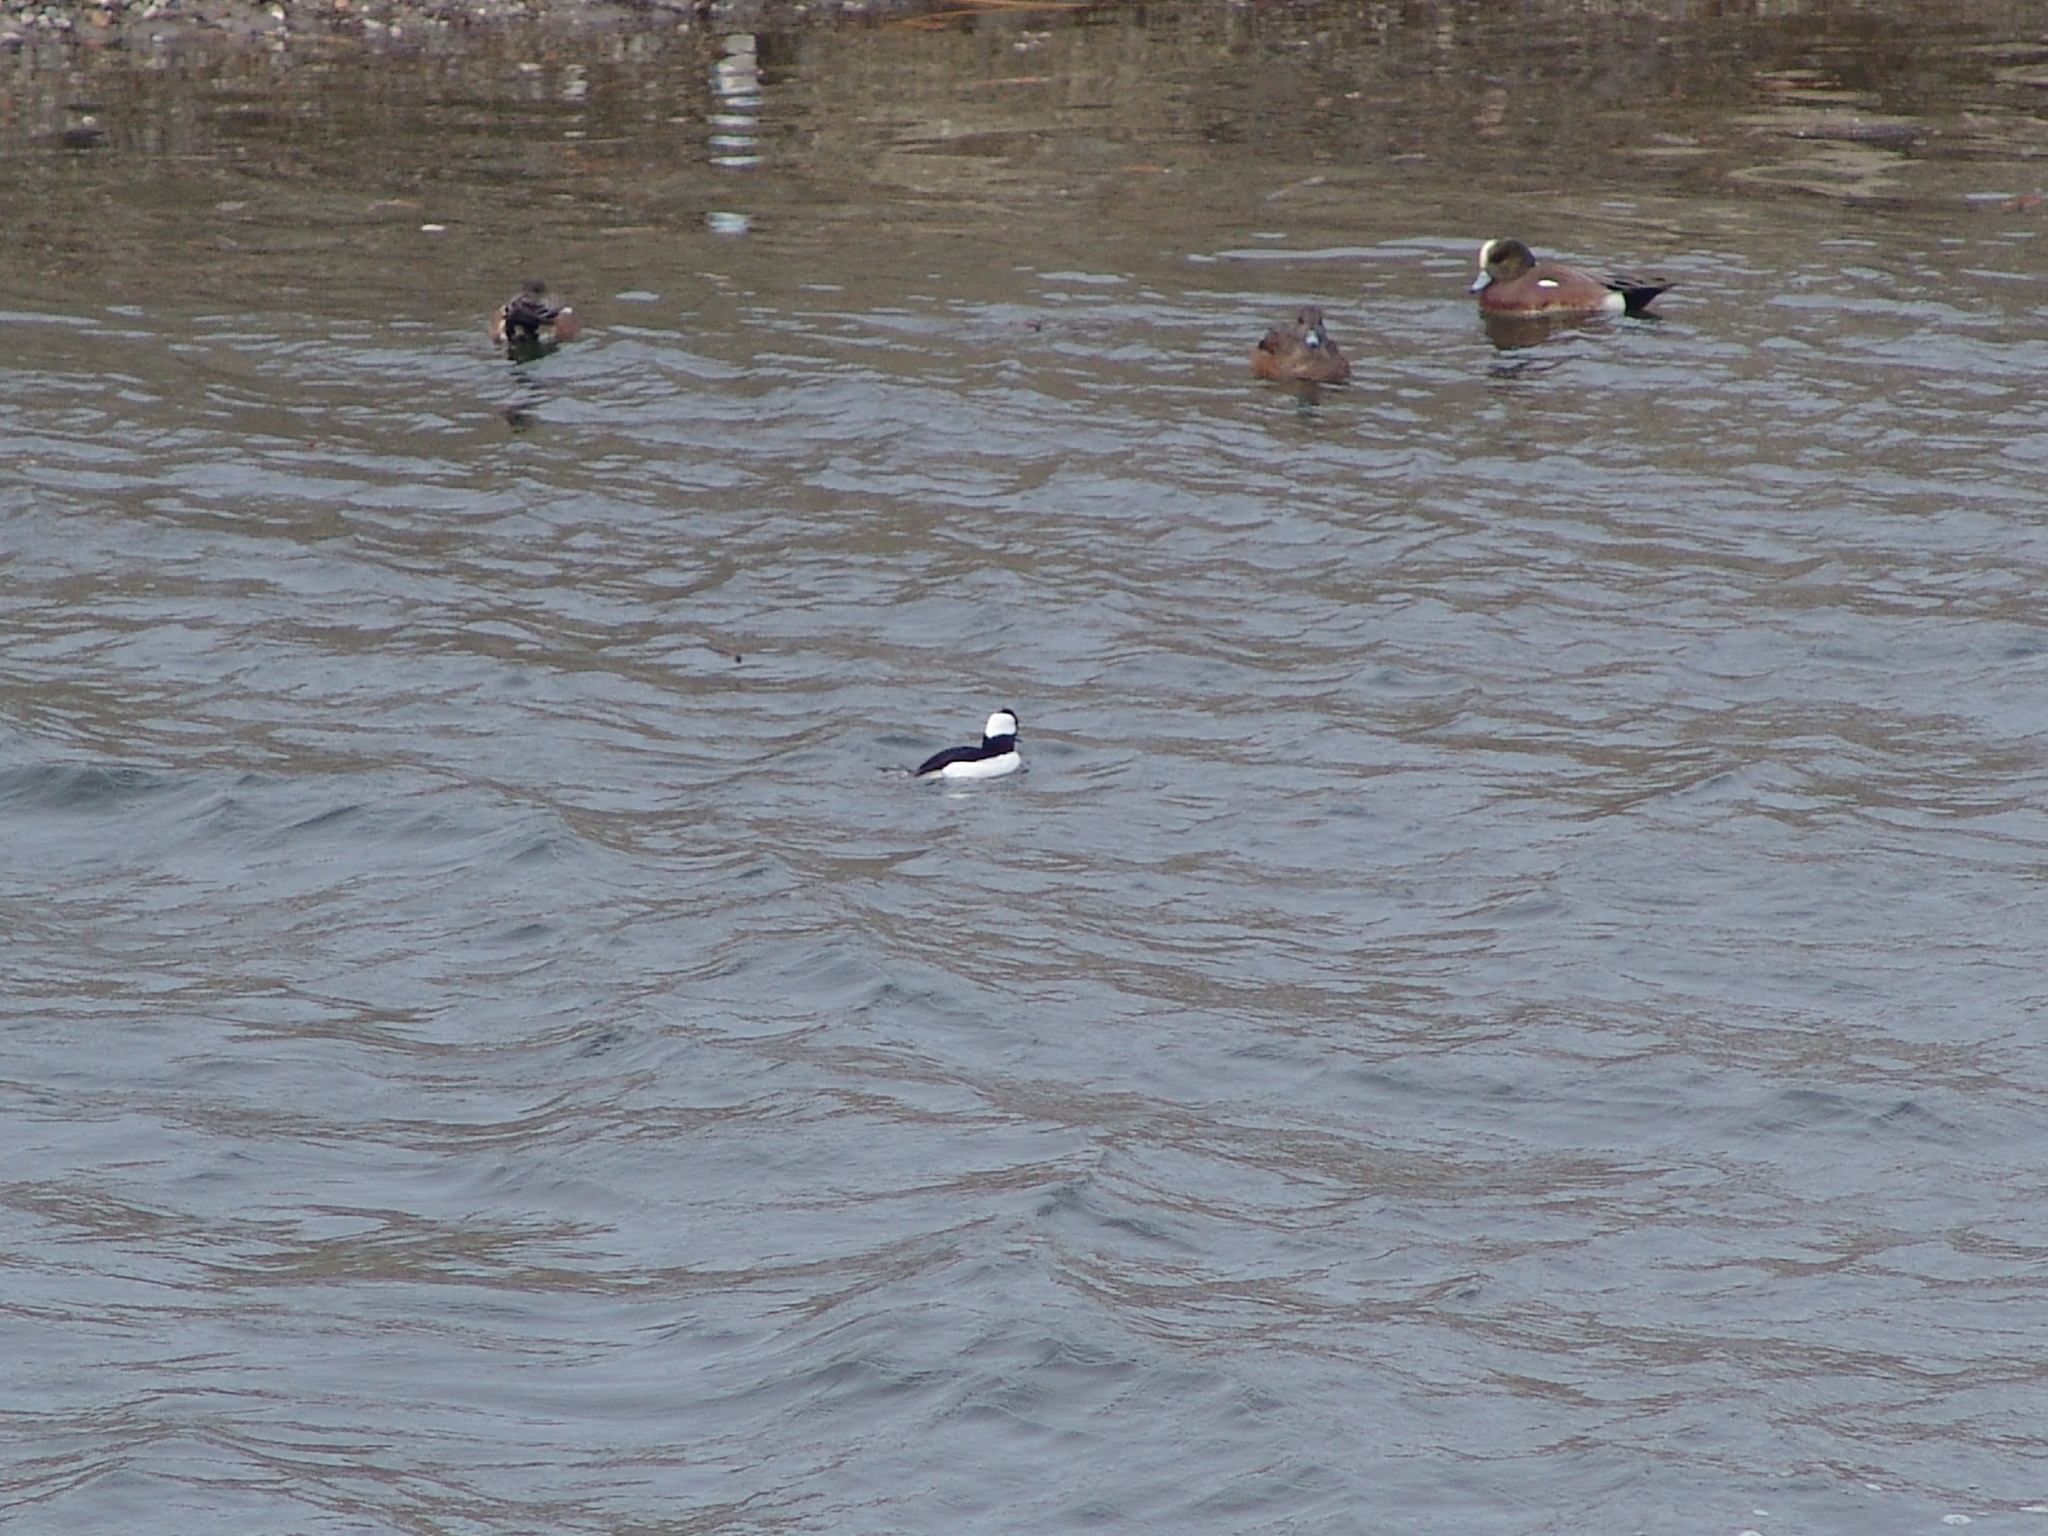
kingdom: Animalia
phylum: Chordata
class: Aves
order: Anseriformes
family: Anatidae
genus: Bucephala
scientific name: Bucephala albeola
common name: Bufflehead
